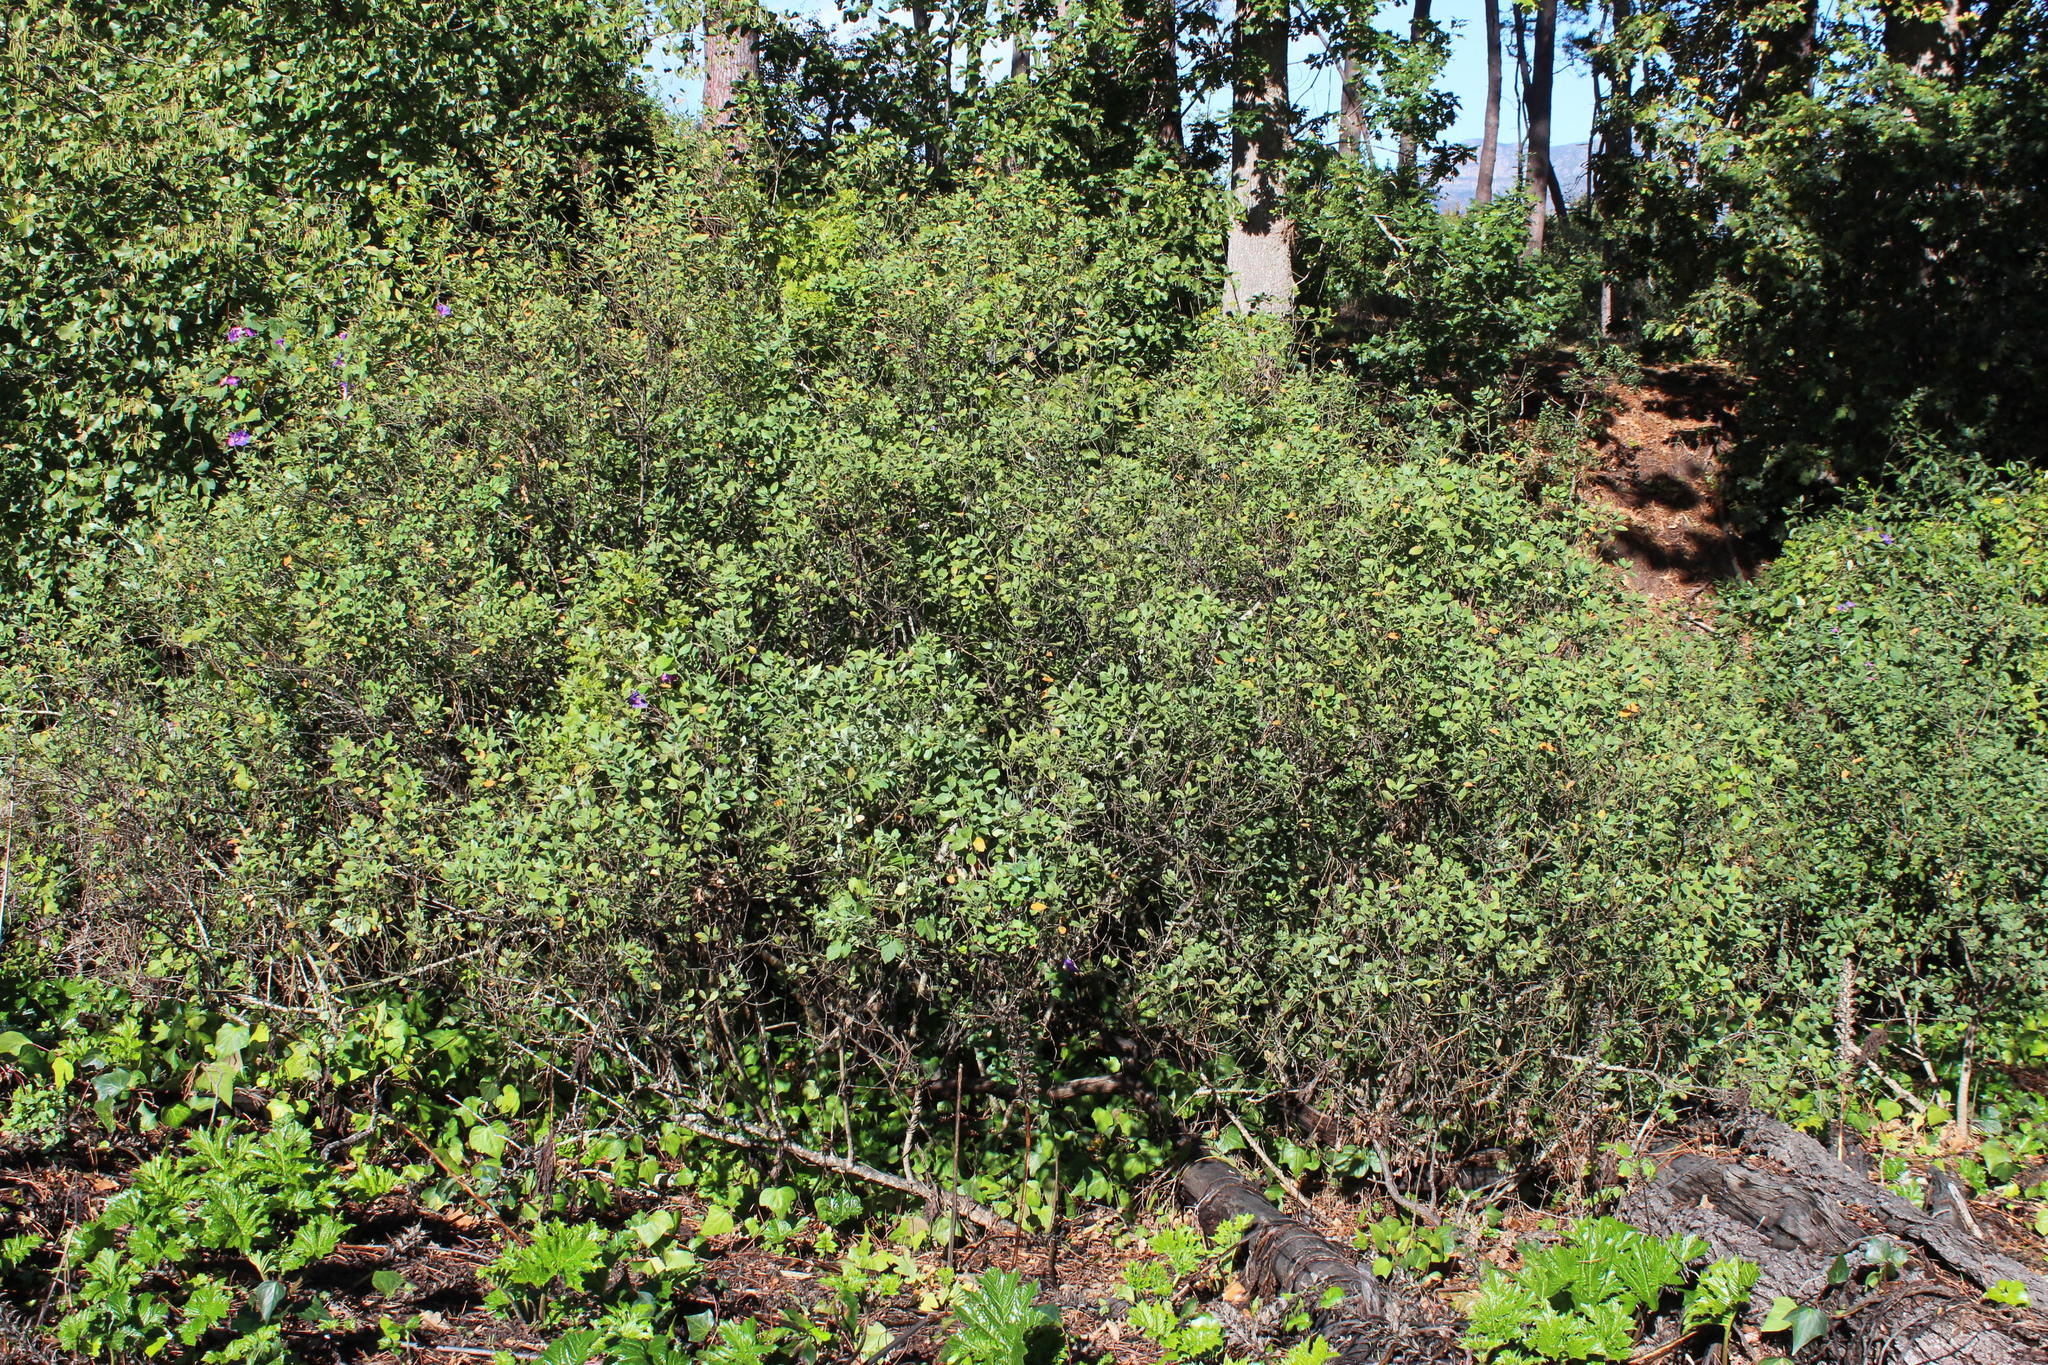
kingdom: Plantae
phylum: Tracheophyta
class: Magnoliopsida
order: Malpighiales
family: Peraceae
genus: Clutia
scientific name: Clutia pulchella
